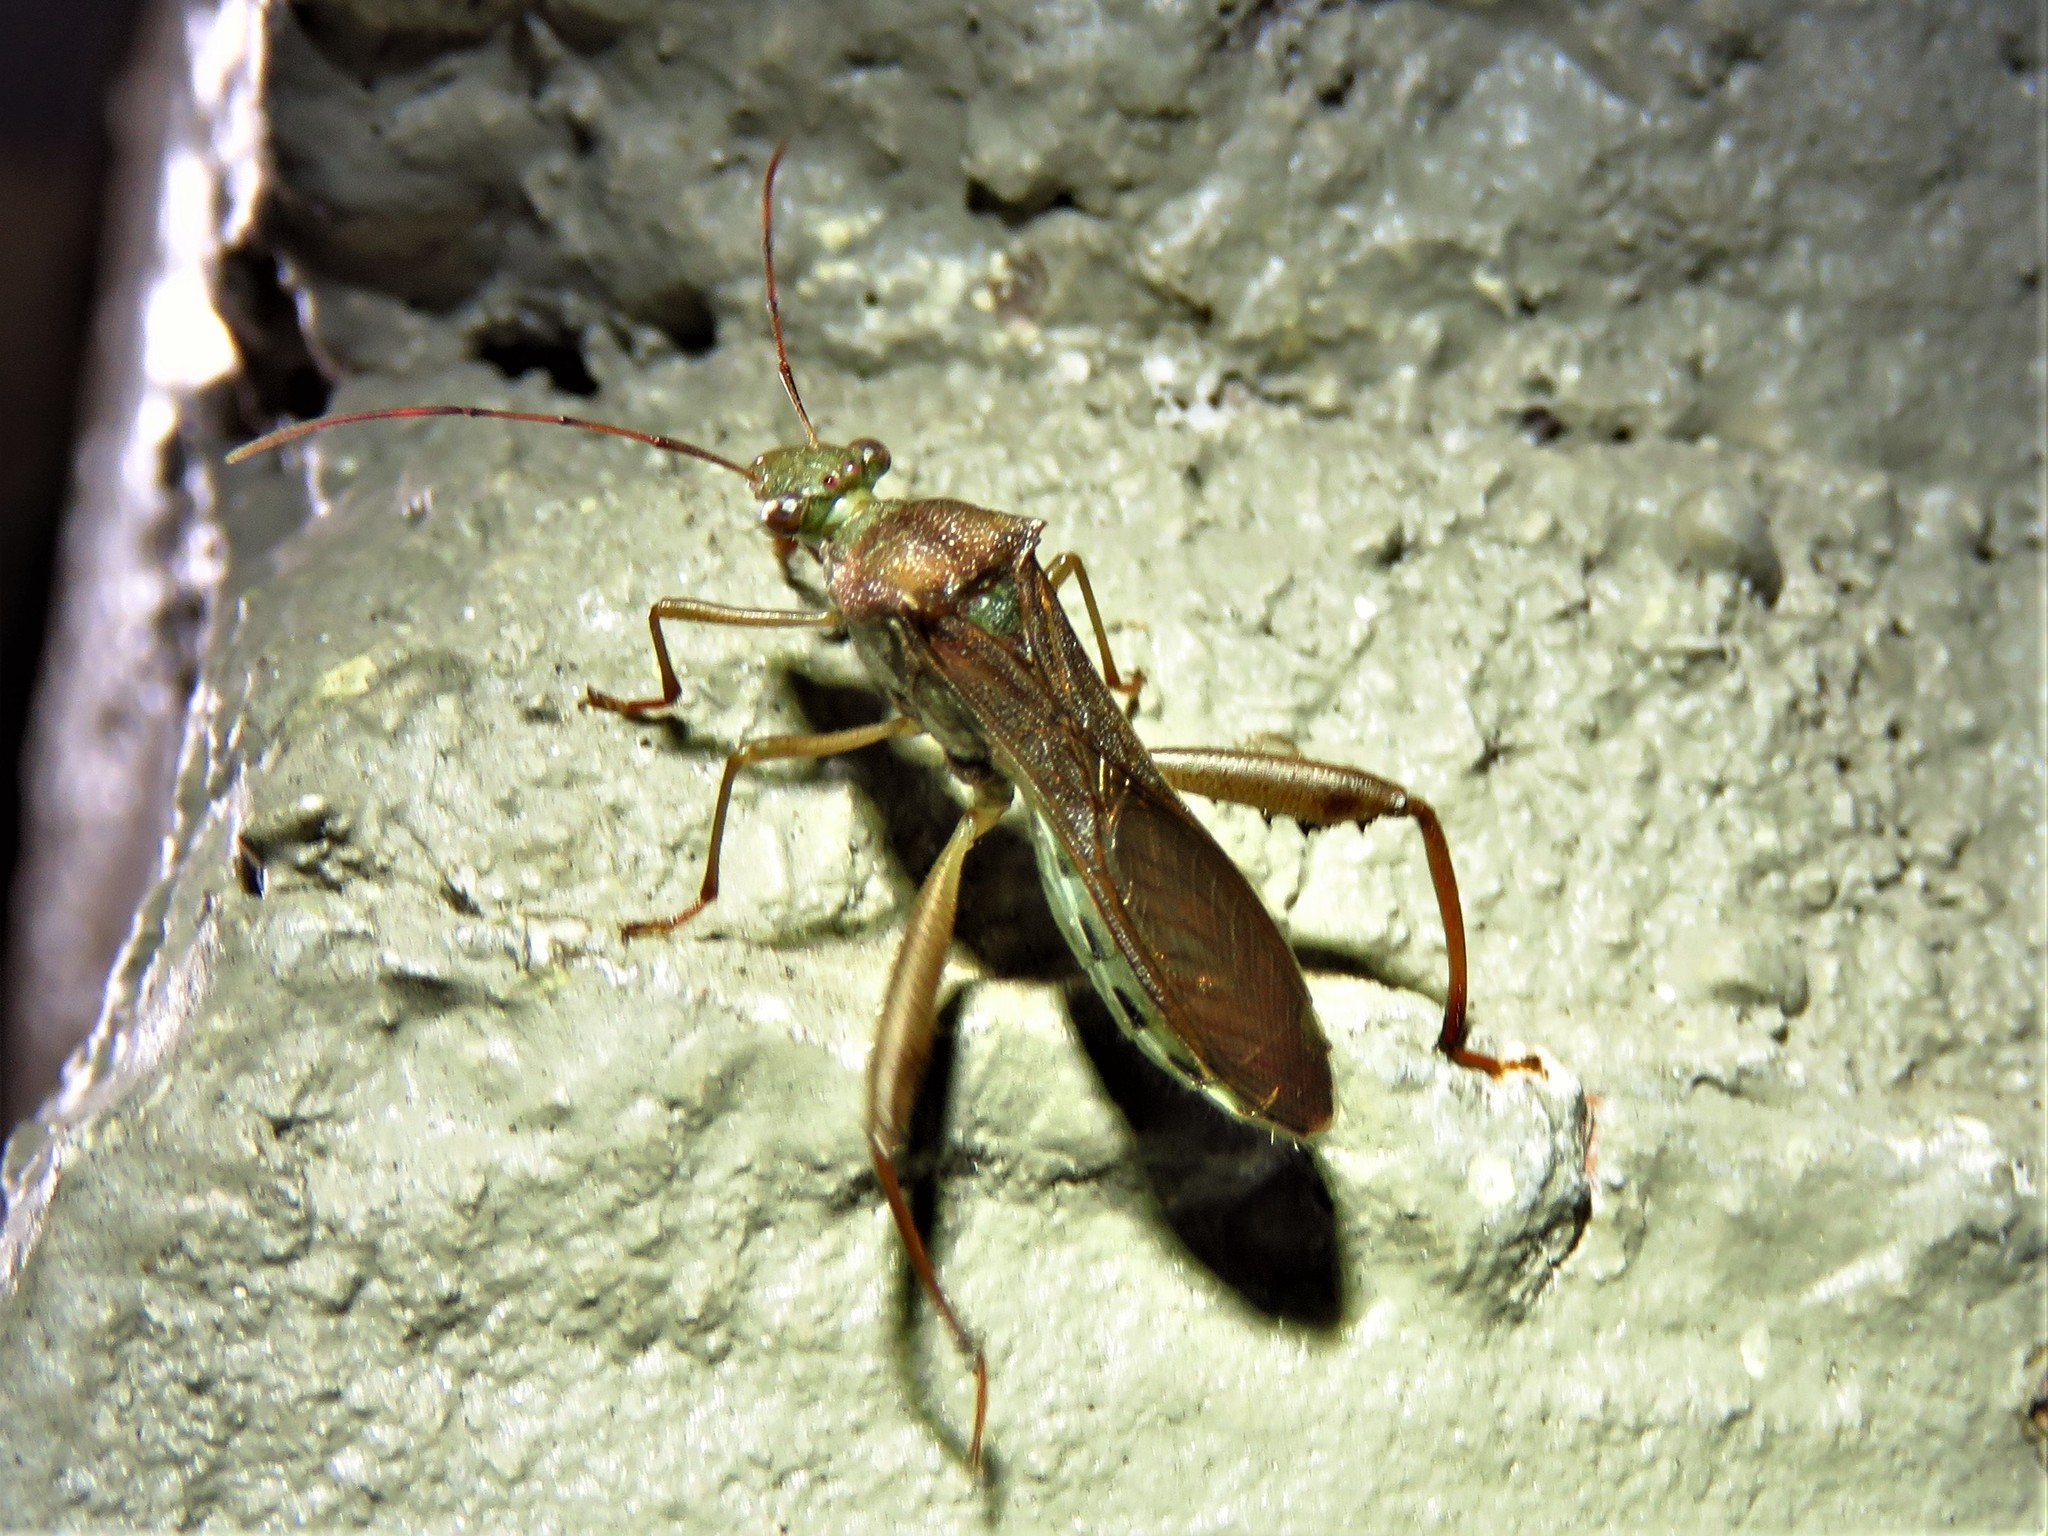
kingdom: Animalia
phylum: Arthropoda
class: Insecta
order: Hemiptera
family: Alydidae
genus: Hyalymenus
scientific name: Hyalymenus tarsatus
